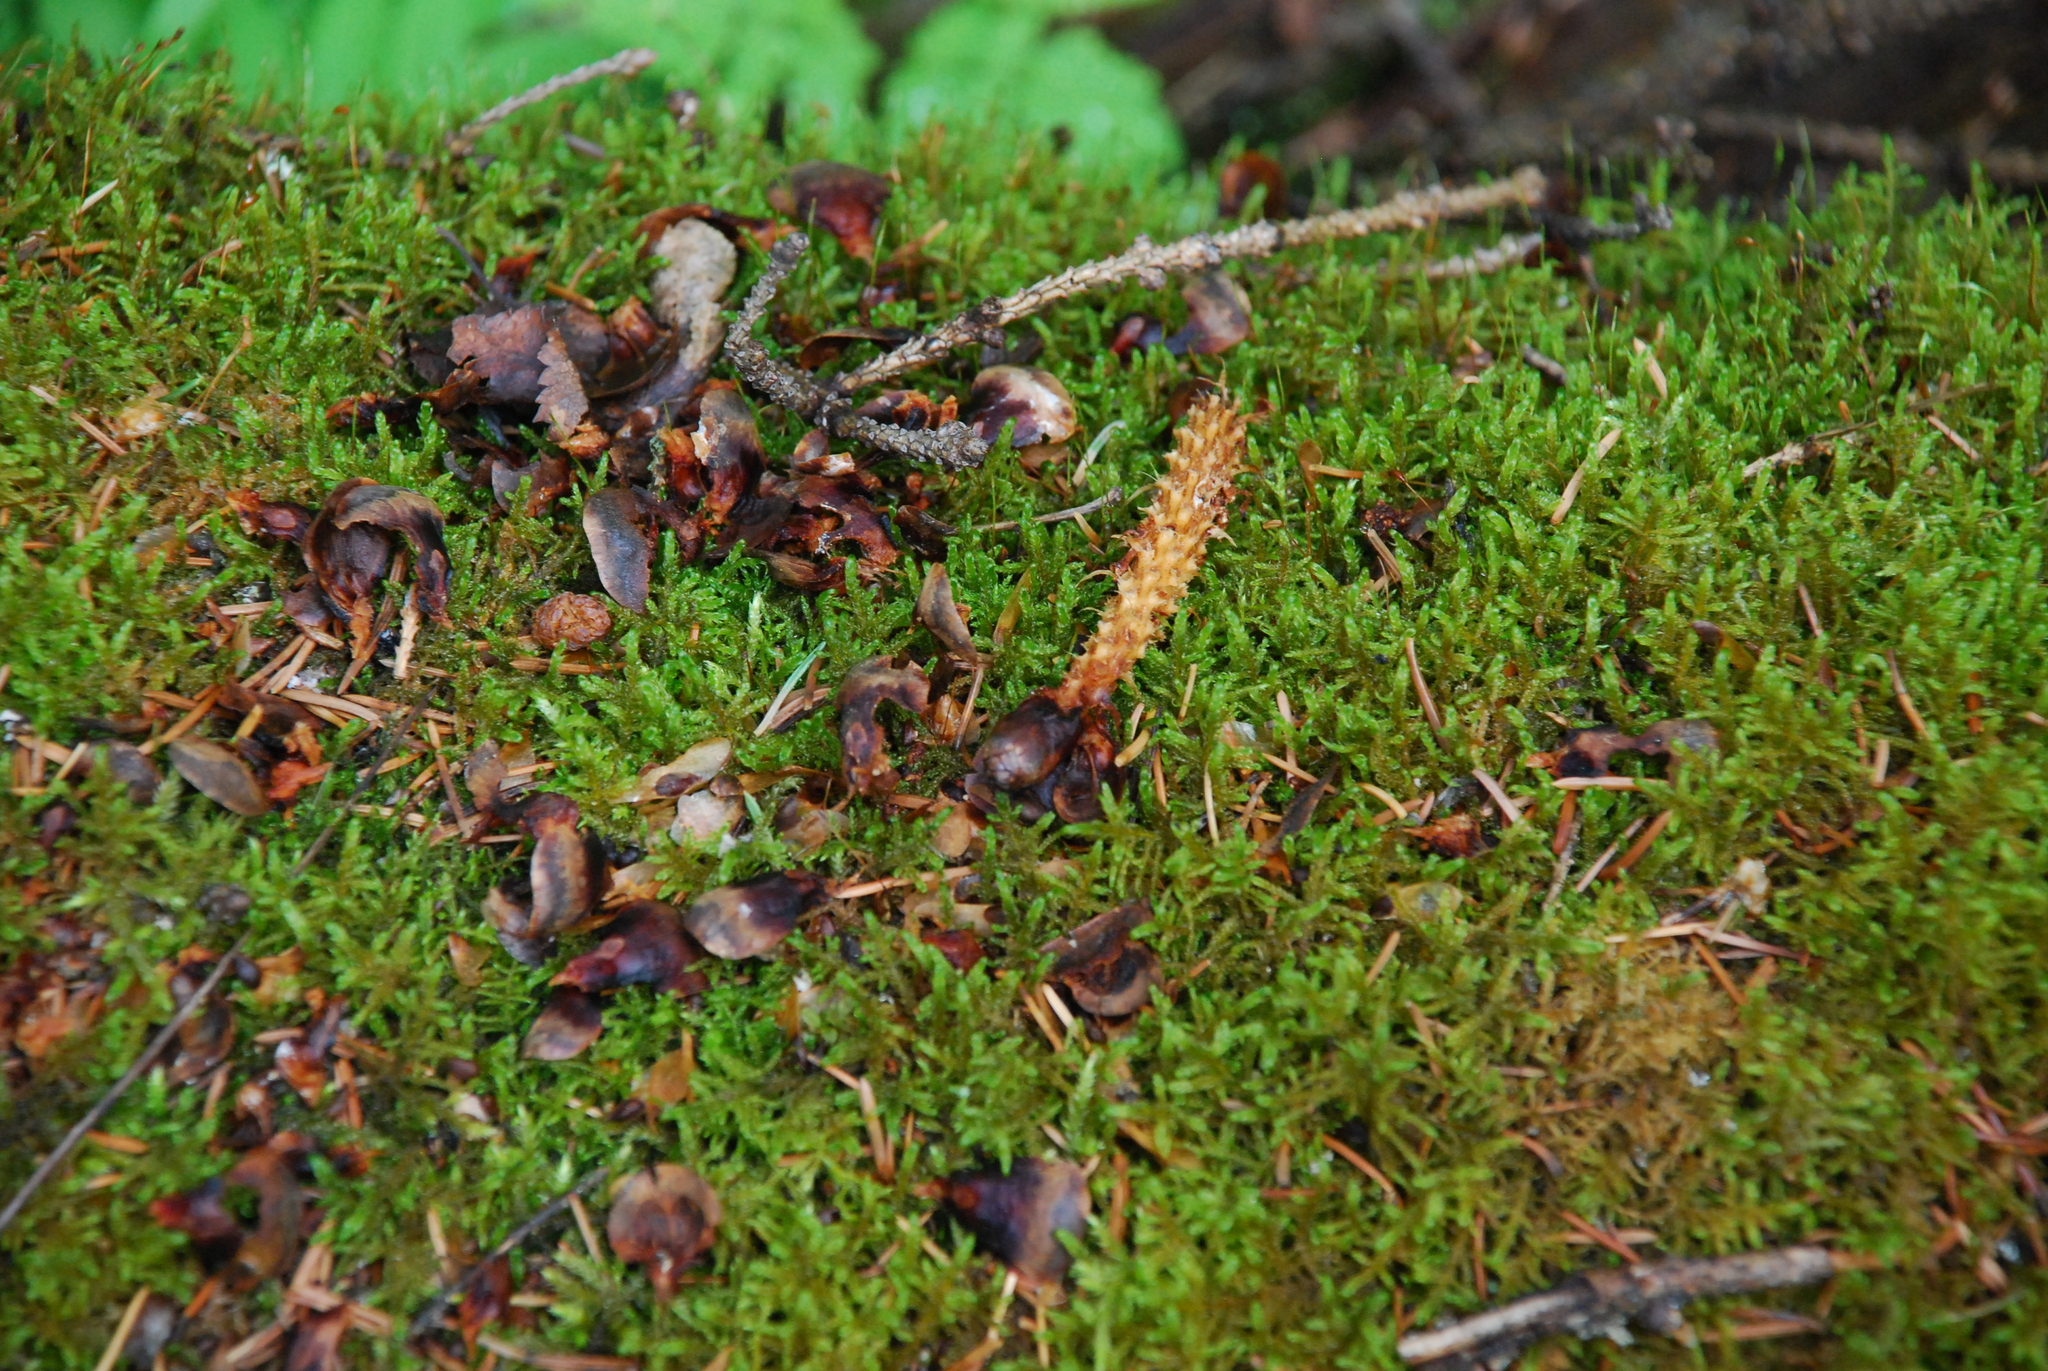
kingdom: Animalia
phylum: Chordata
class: Mammalia
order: Rodentia
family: Sciuridae
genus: Sciurus
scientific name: Sciurus vulgaris
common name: Eurasian red squirrel
